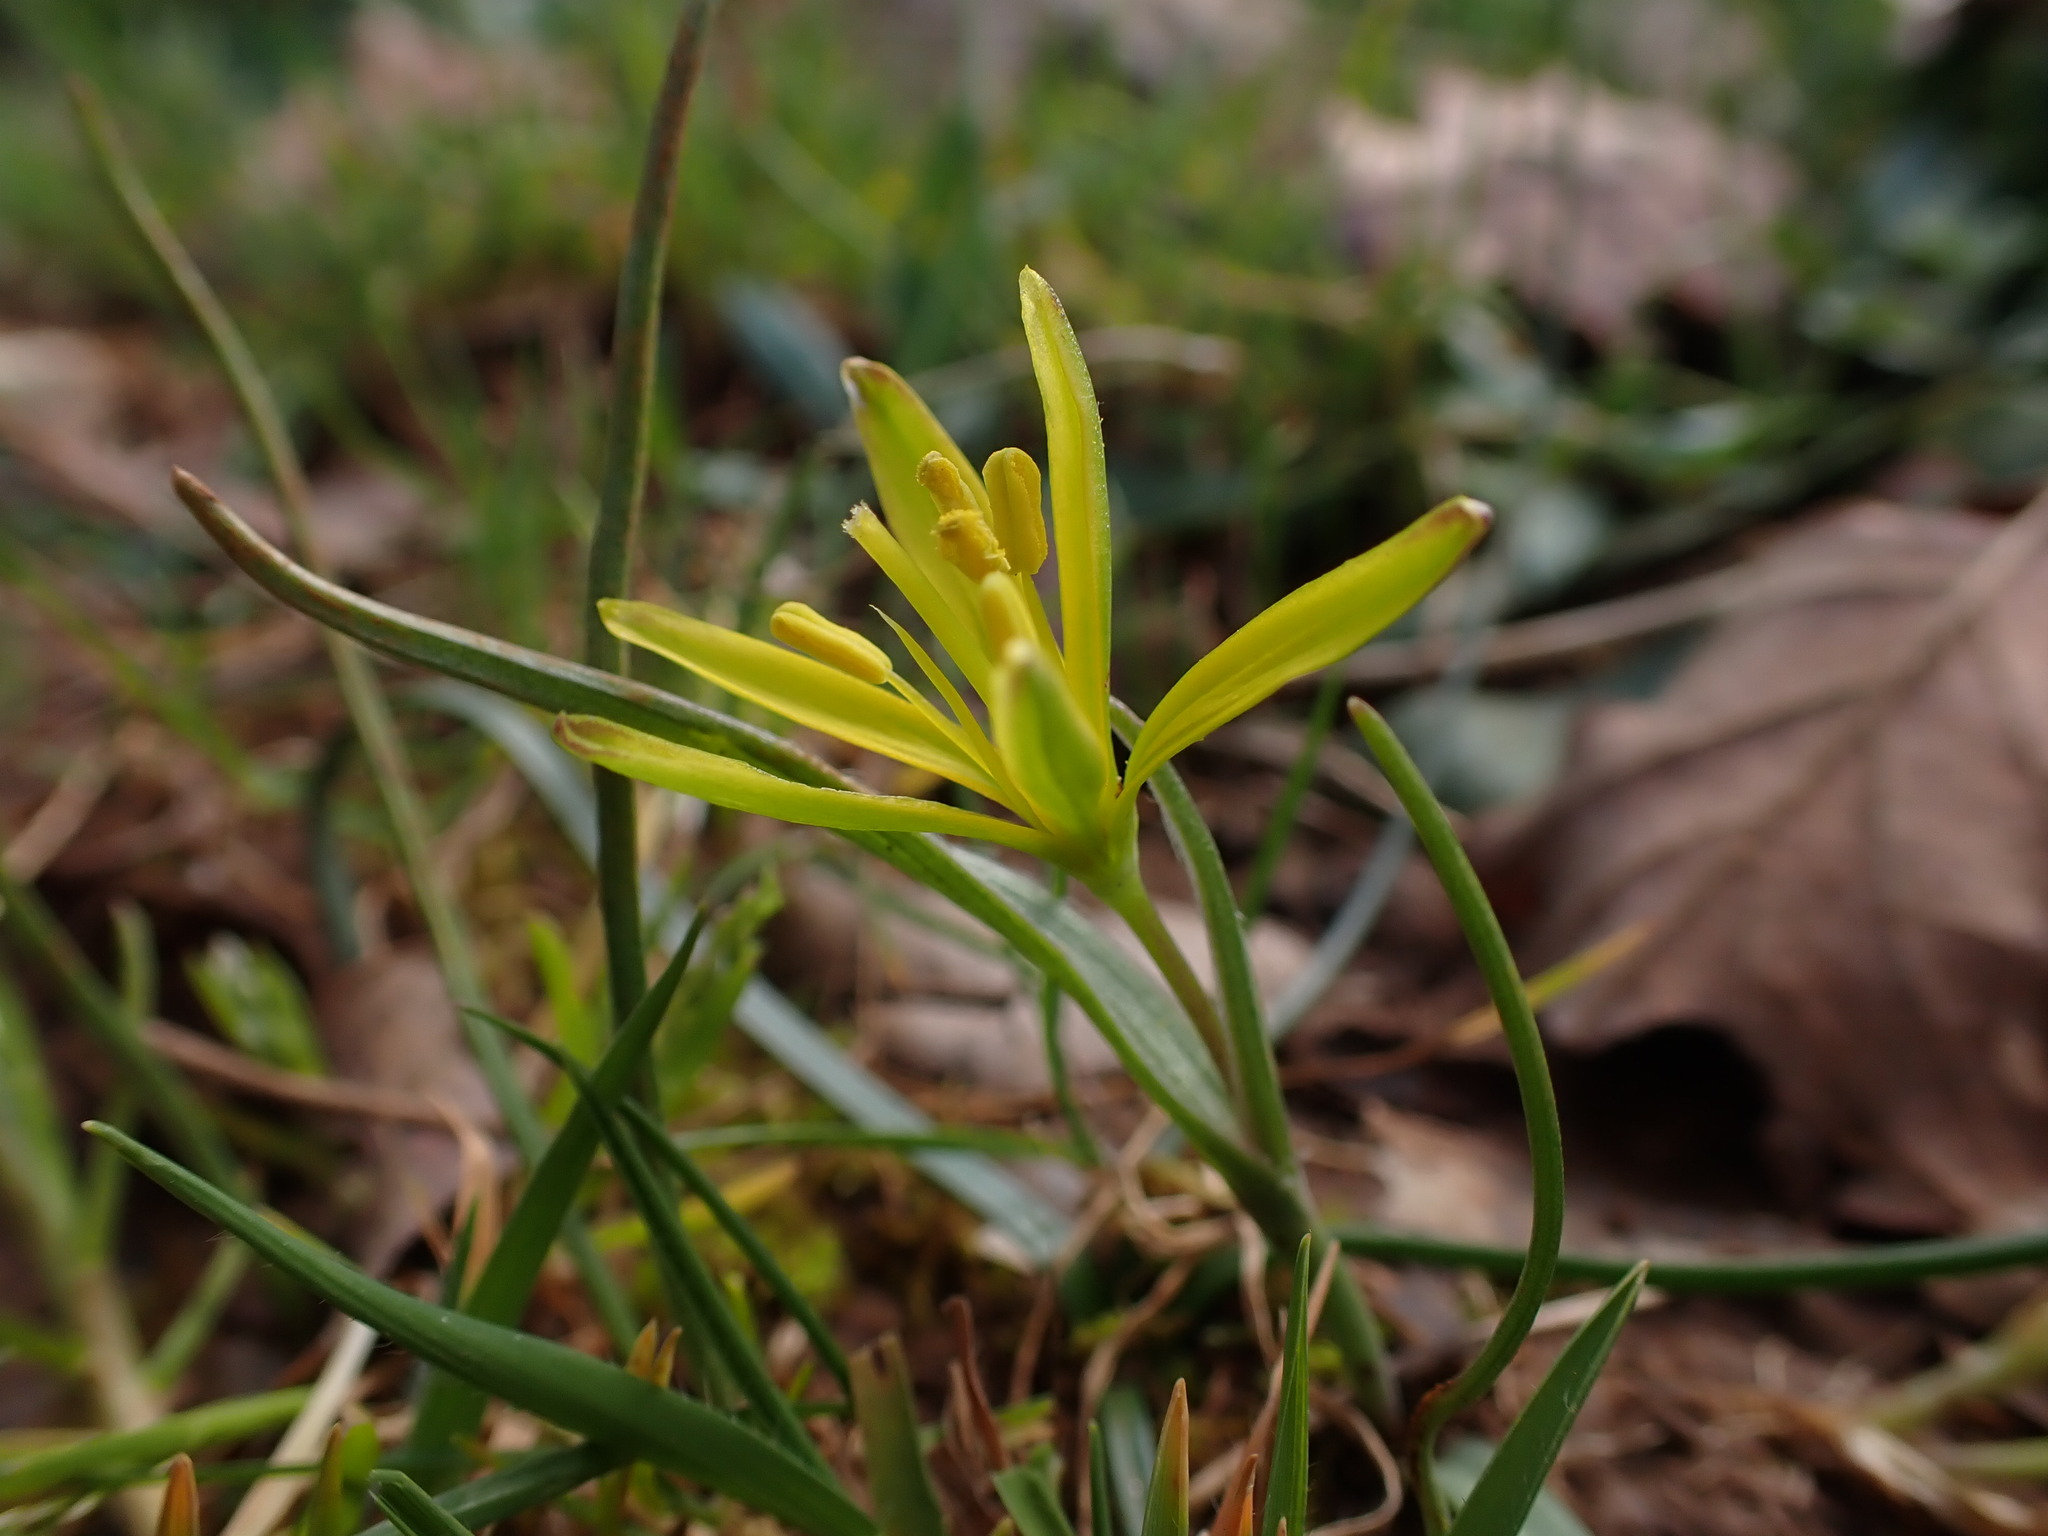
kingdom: Plantae
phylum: Tracheophyta
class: Liliopsida
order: Liliales
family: Liliaceae
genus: Gagea
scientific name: Gagea pratensis
